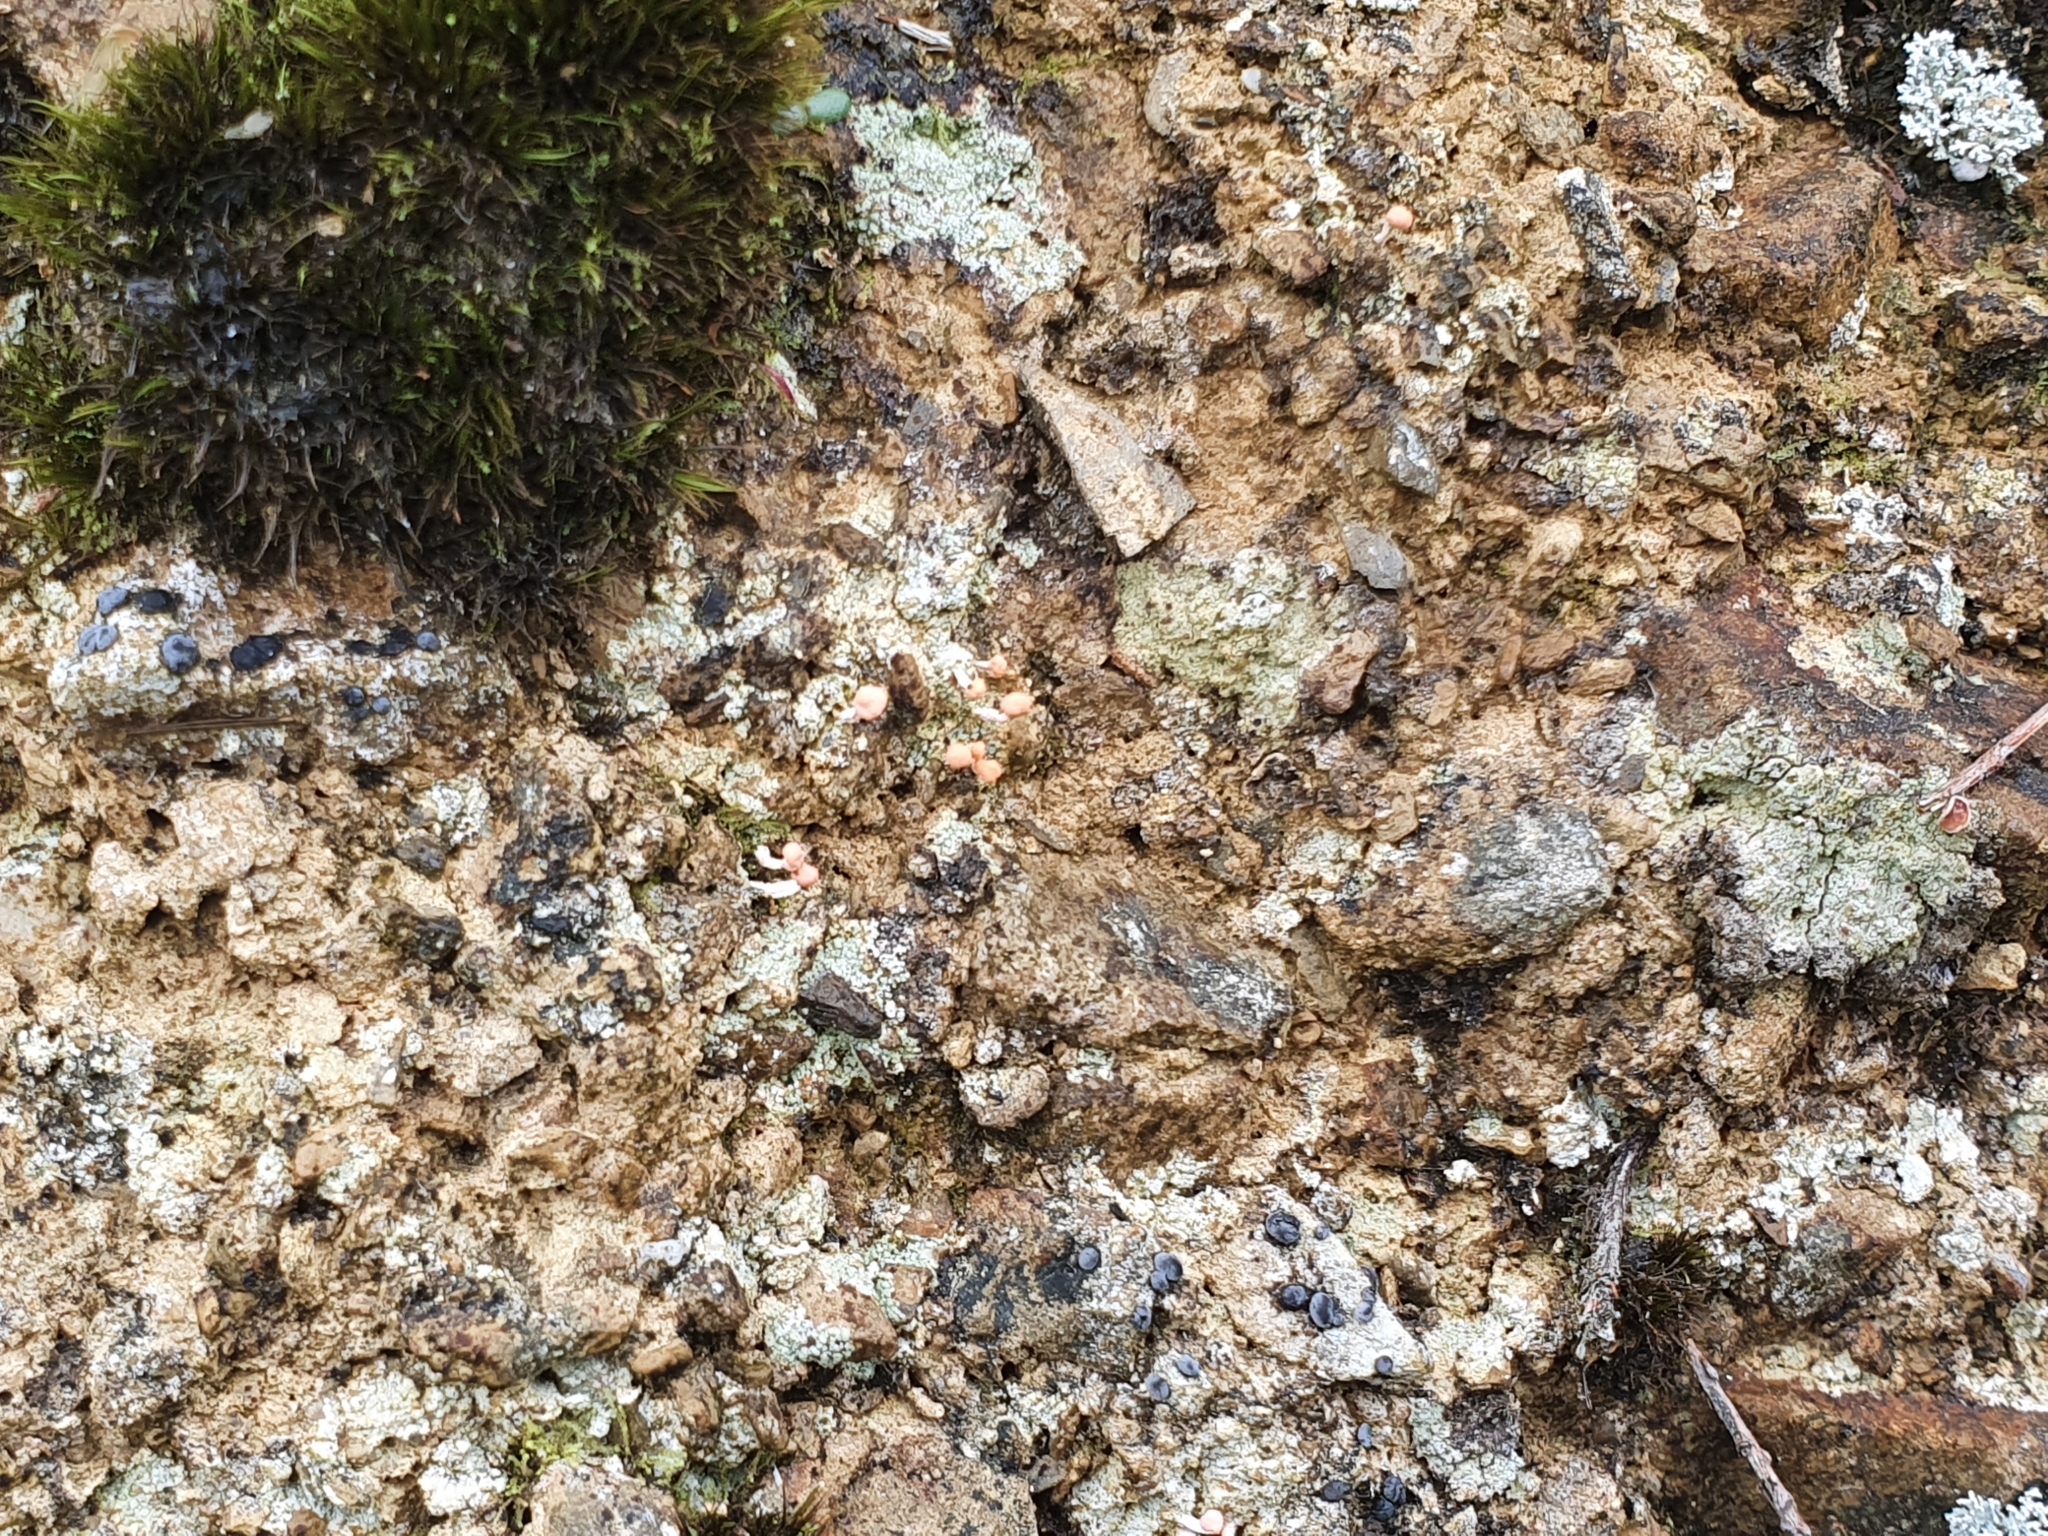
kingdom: Fungi
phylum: Ascomycota
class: Lecanoromycetes
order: Pertusariales
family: Icmadophilaceae
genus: Dibaeis
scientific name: Dibaeis arcuata
